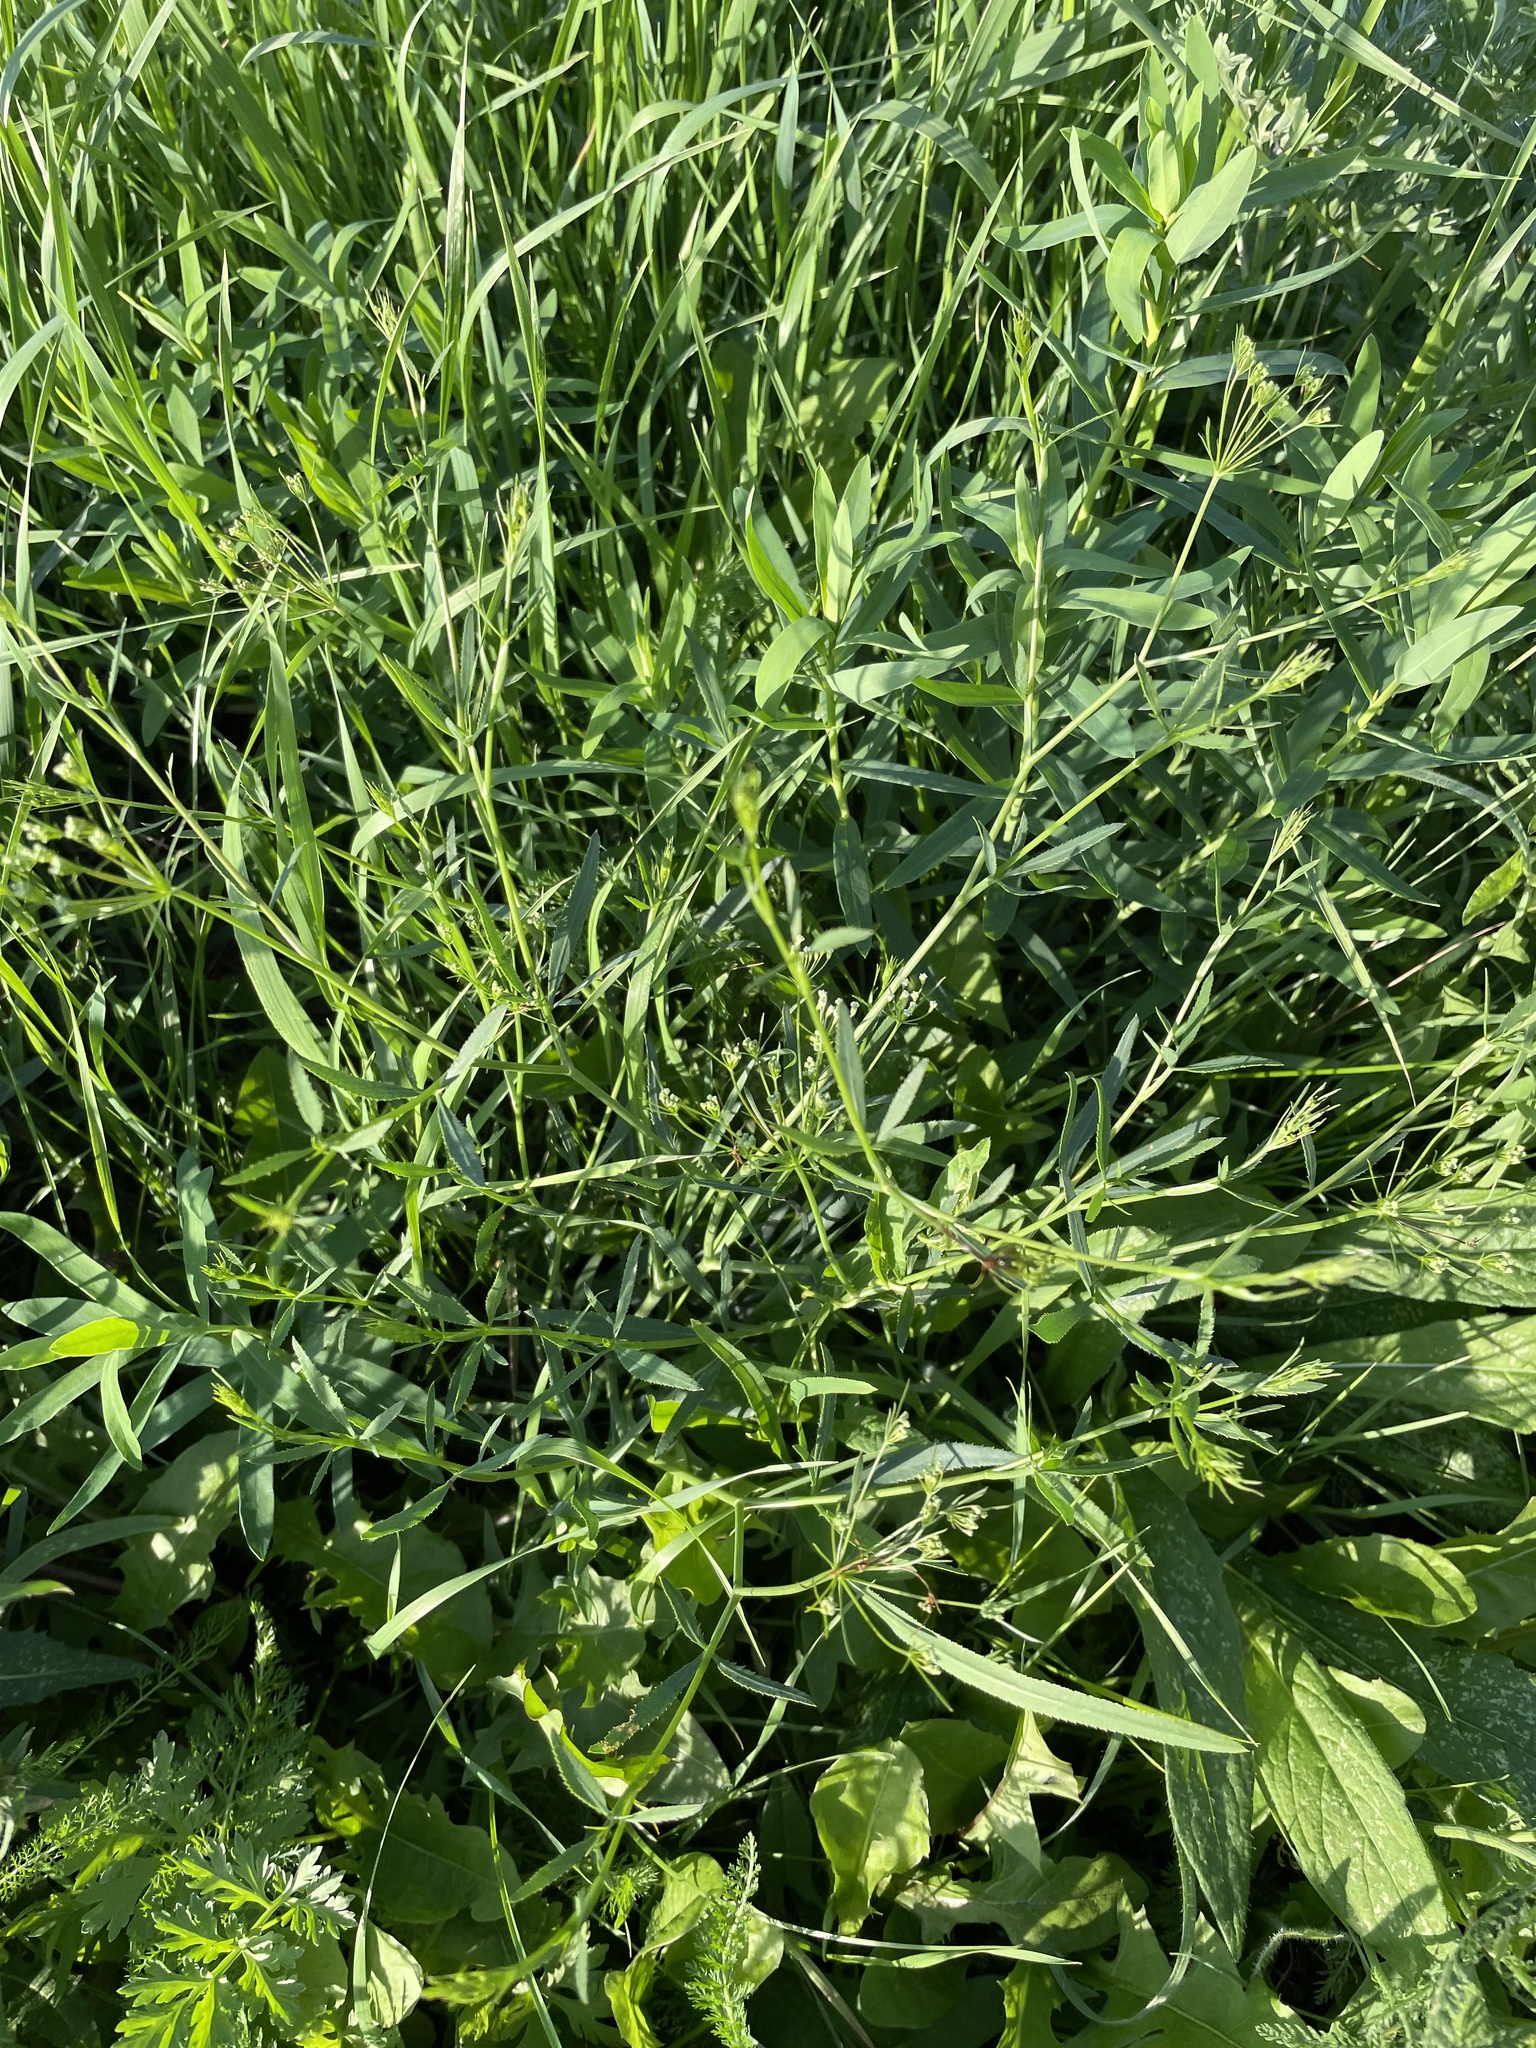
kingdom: Plantae
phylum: Tracheophyta
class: Magnoliopsida
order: Apiales
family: Apiaceae
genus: Falcaria
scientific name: Falcaria vulgaris
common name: Longleaf
